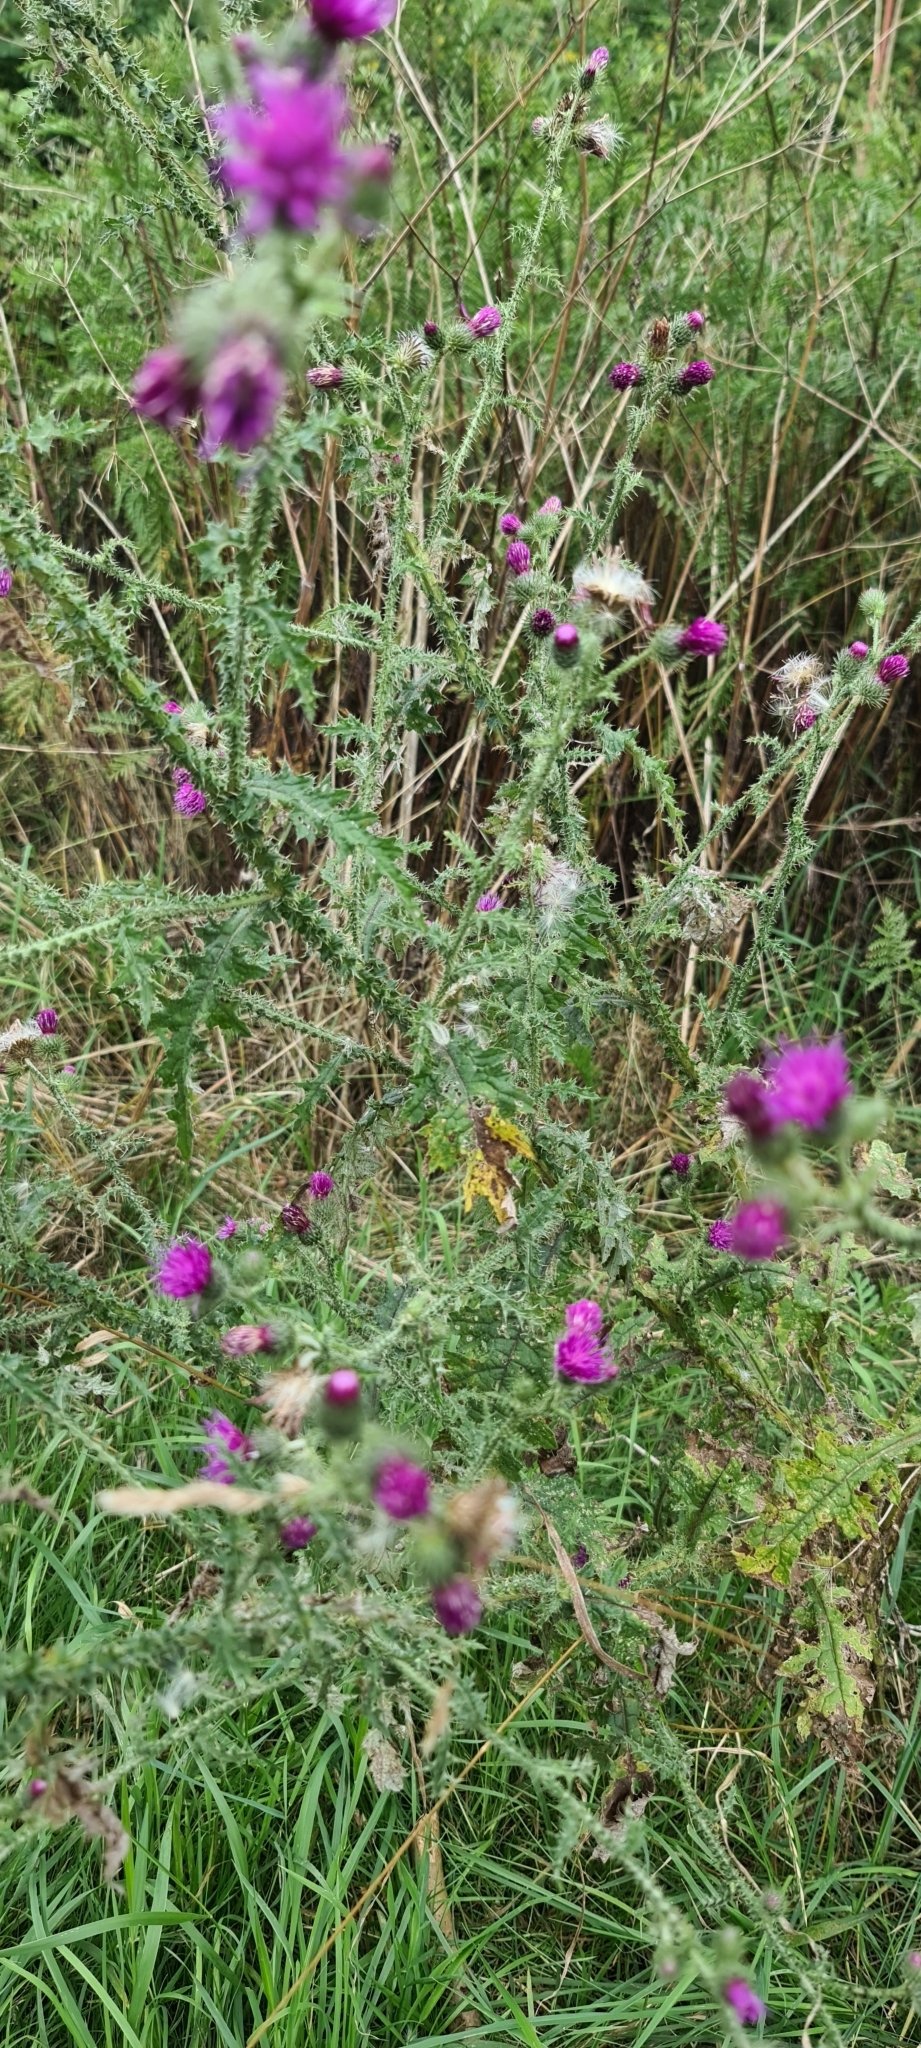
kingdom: Plantae
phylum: Tracheophyta
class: Magnoliopsida
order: Asterales
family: Asteraceae
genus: Carduus
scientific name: Carduus crispus
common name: Welted thistle
